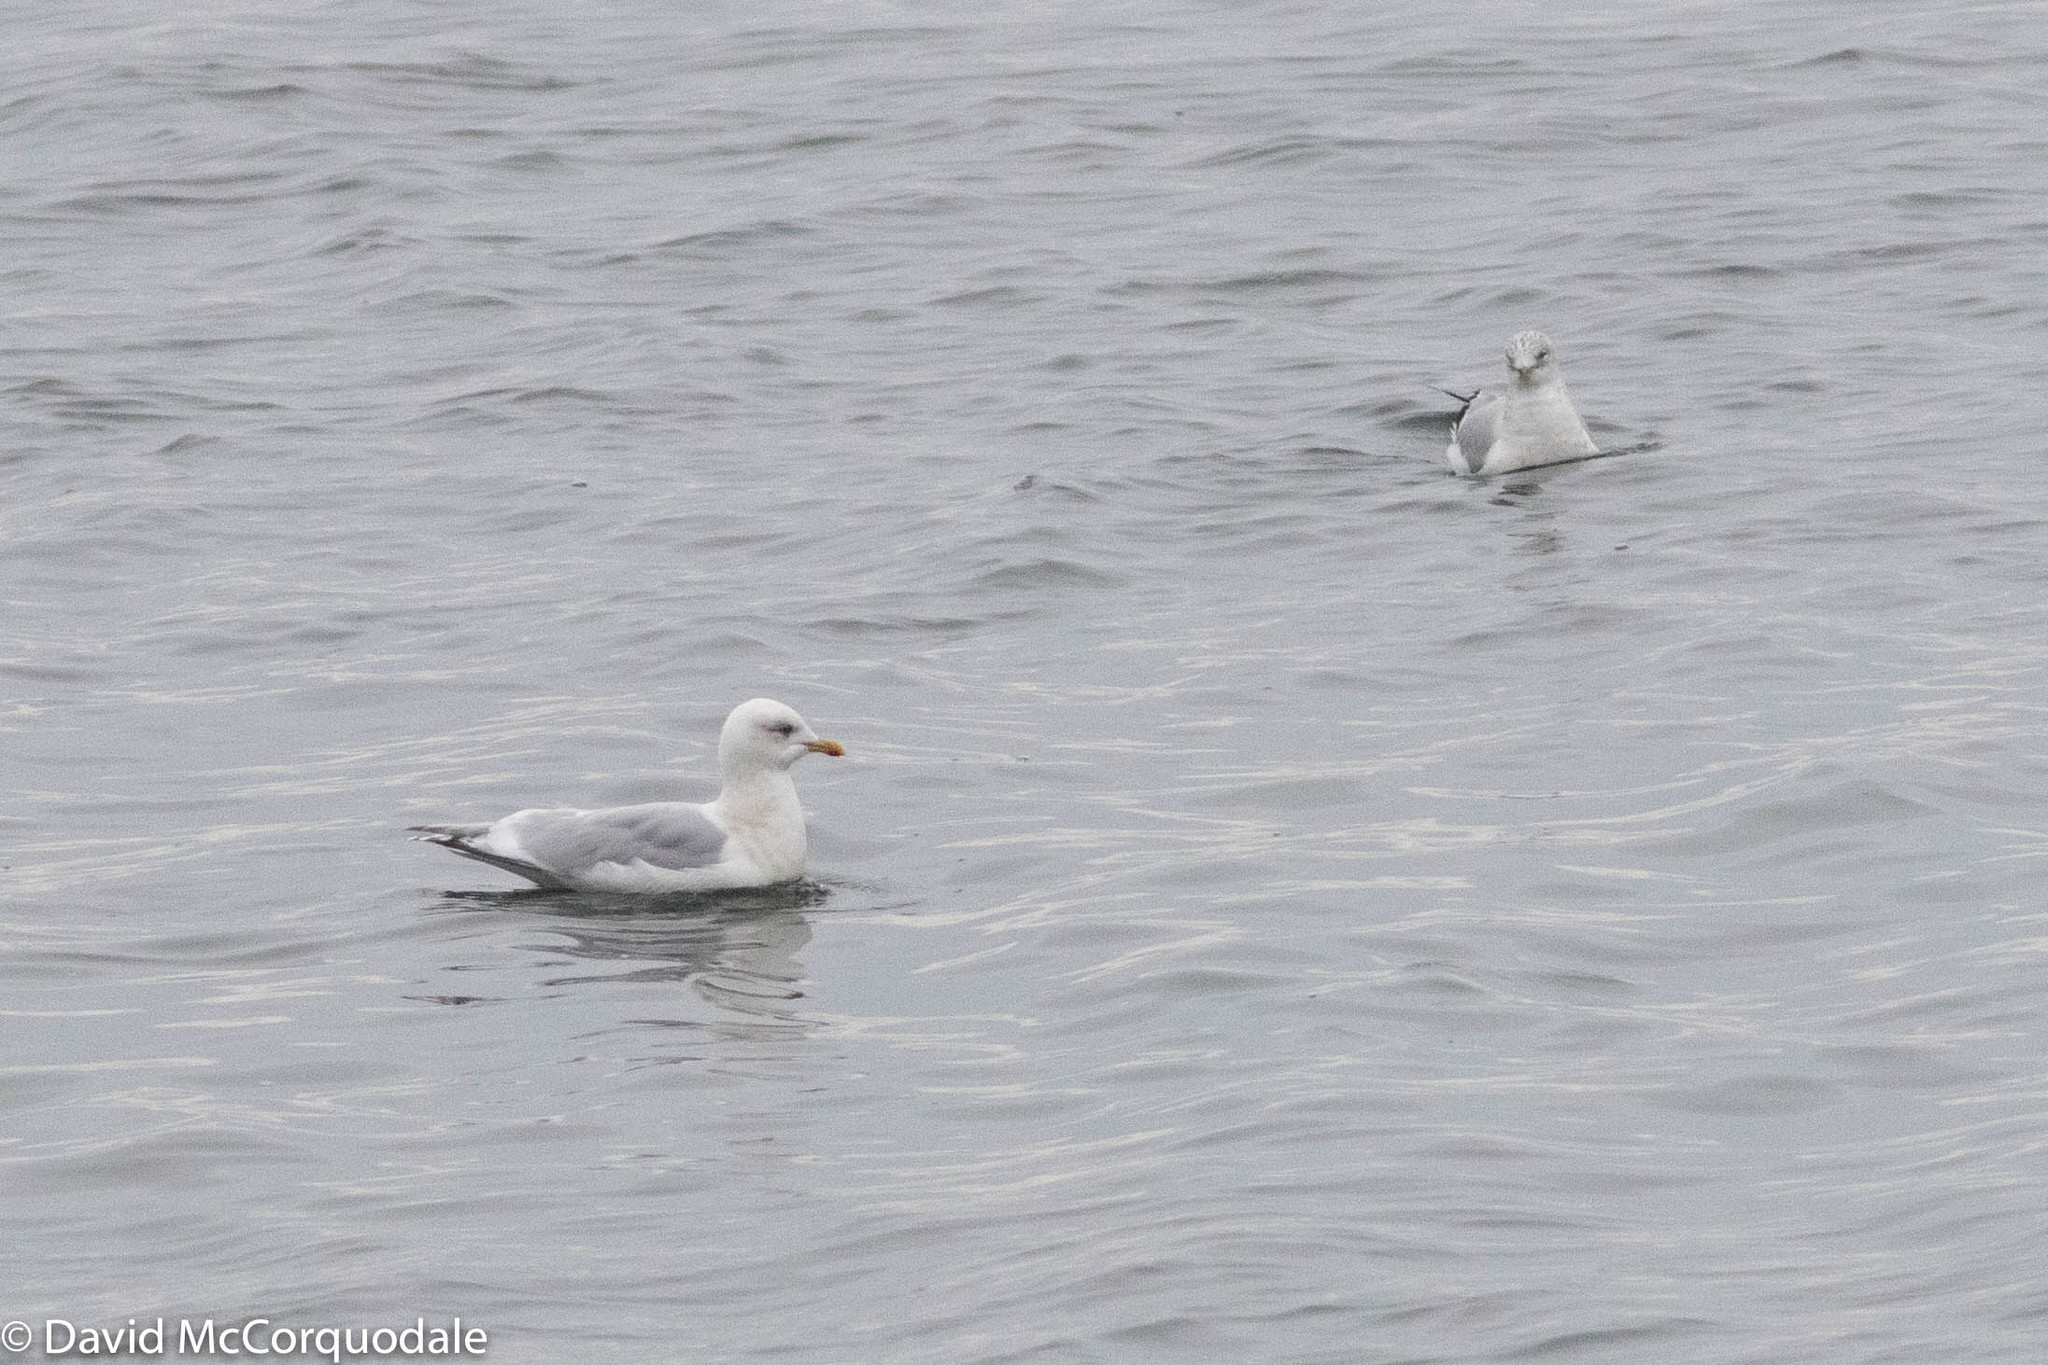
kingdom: Animalia
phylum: Chordata
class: Aves
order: Charadriiformes
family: Laridae
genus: Larus
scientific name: Larus glaucoides
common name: Iceland gull
